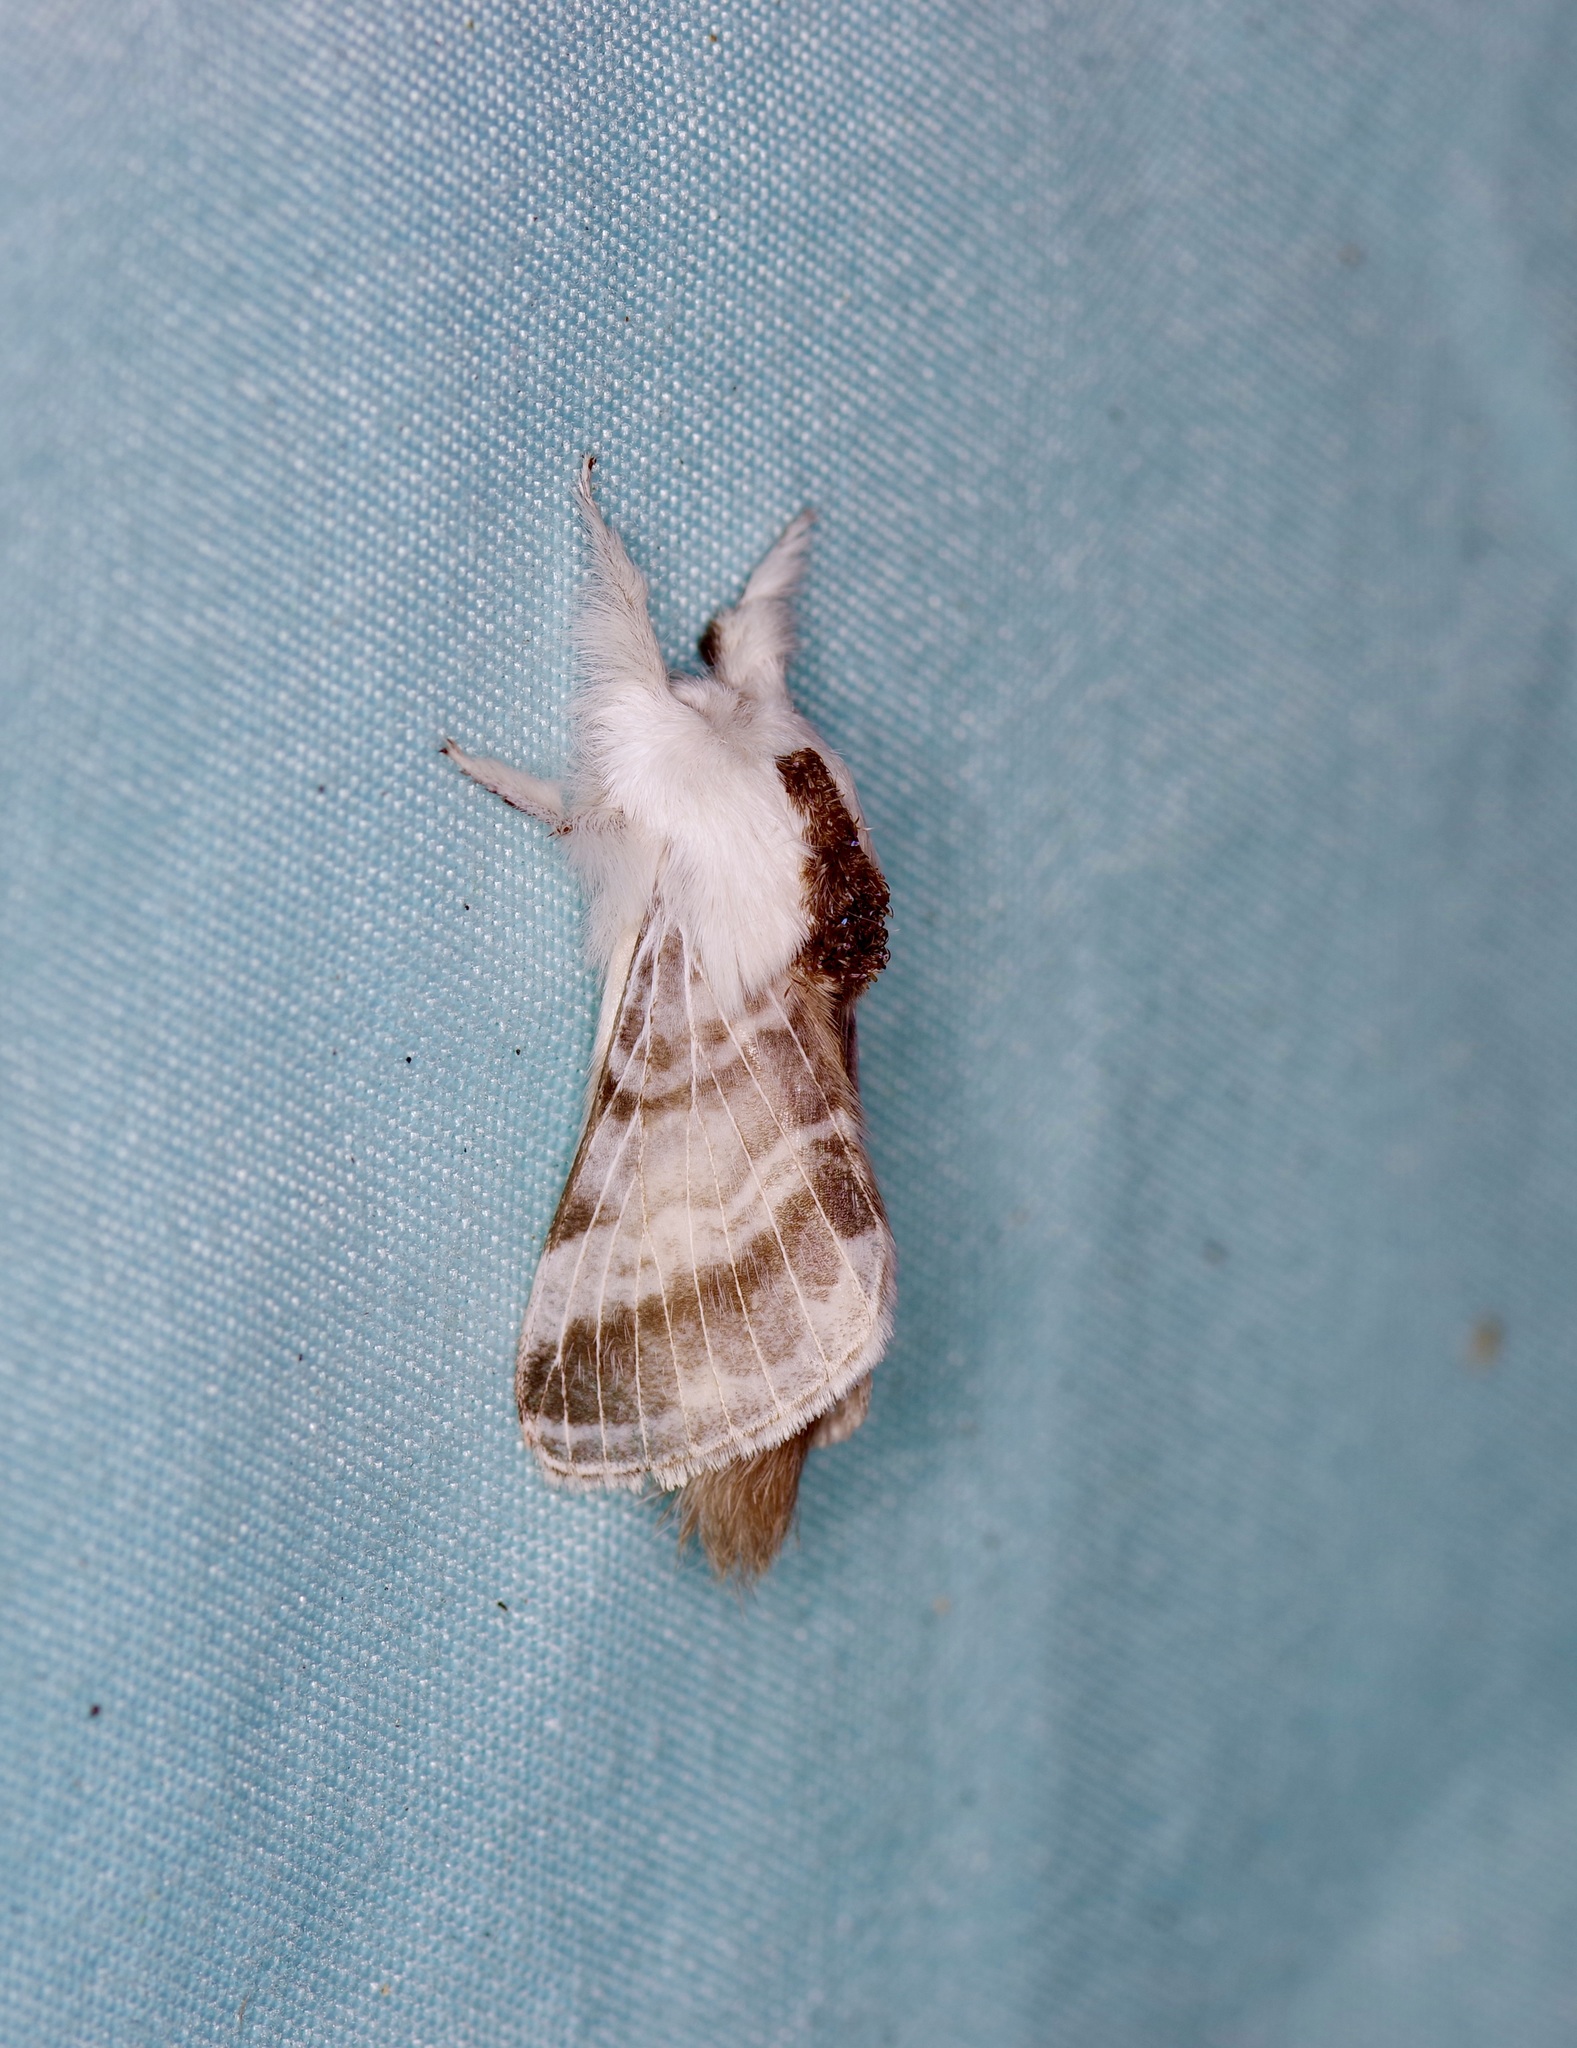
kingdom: Animalia
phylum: Arthropoda
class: Insecta
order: Lepidoptera
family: Lasiocampidae
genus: Tolype
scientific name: Tolype velleda
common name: Large tolype moth
